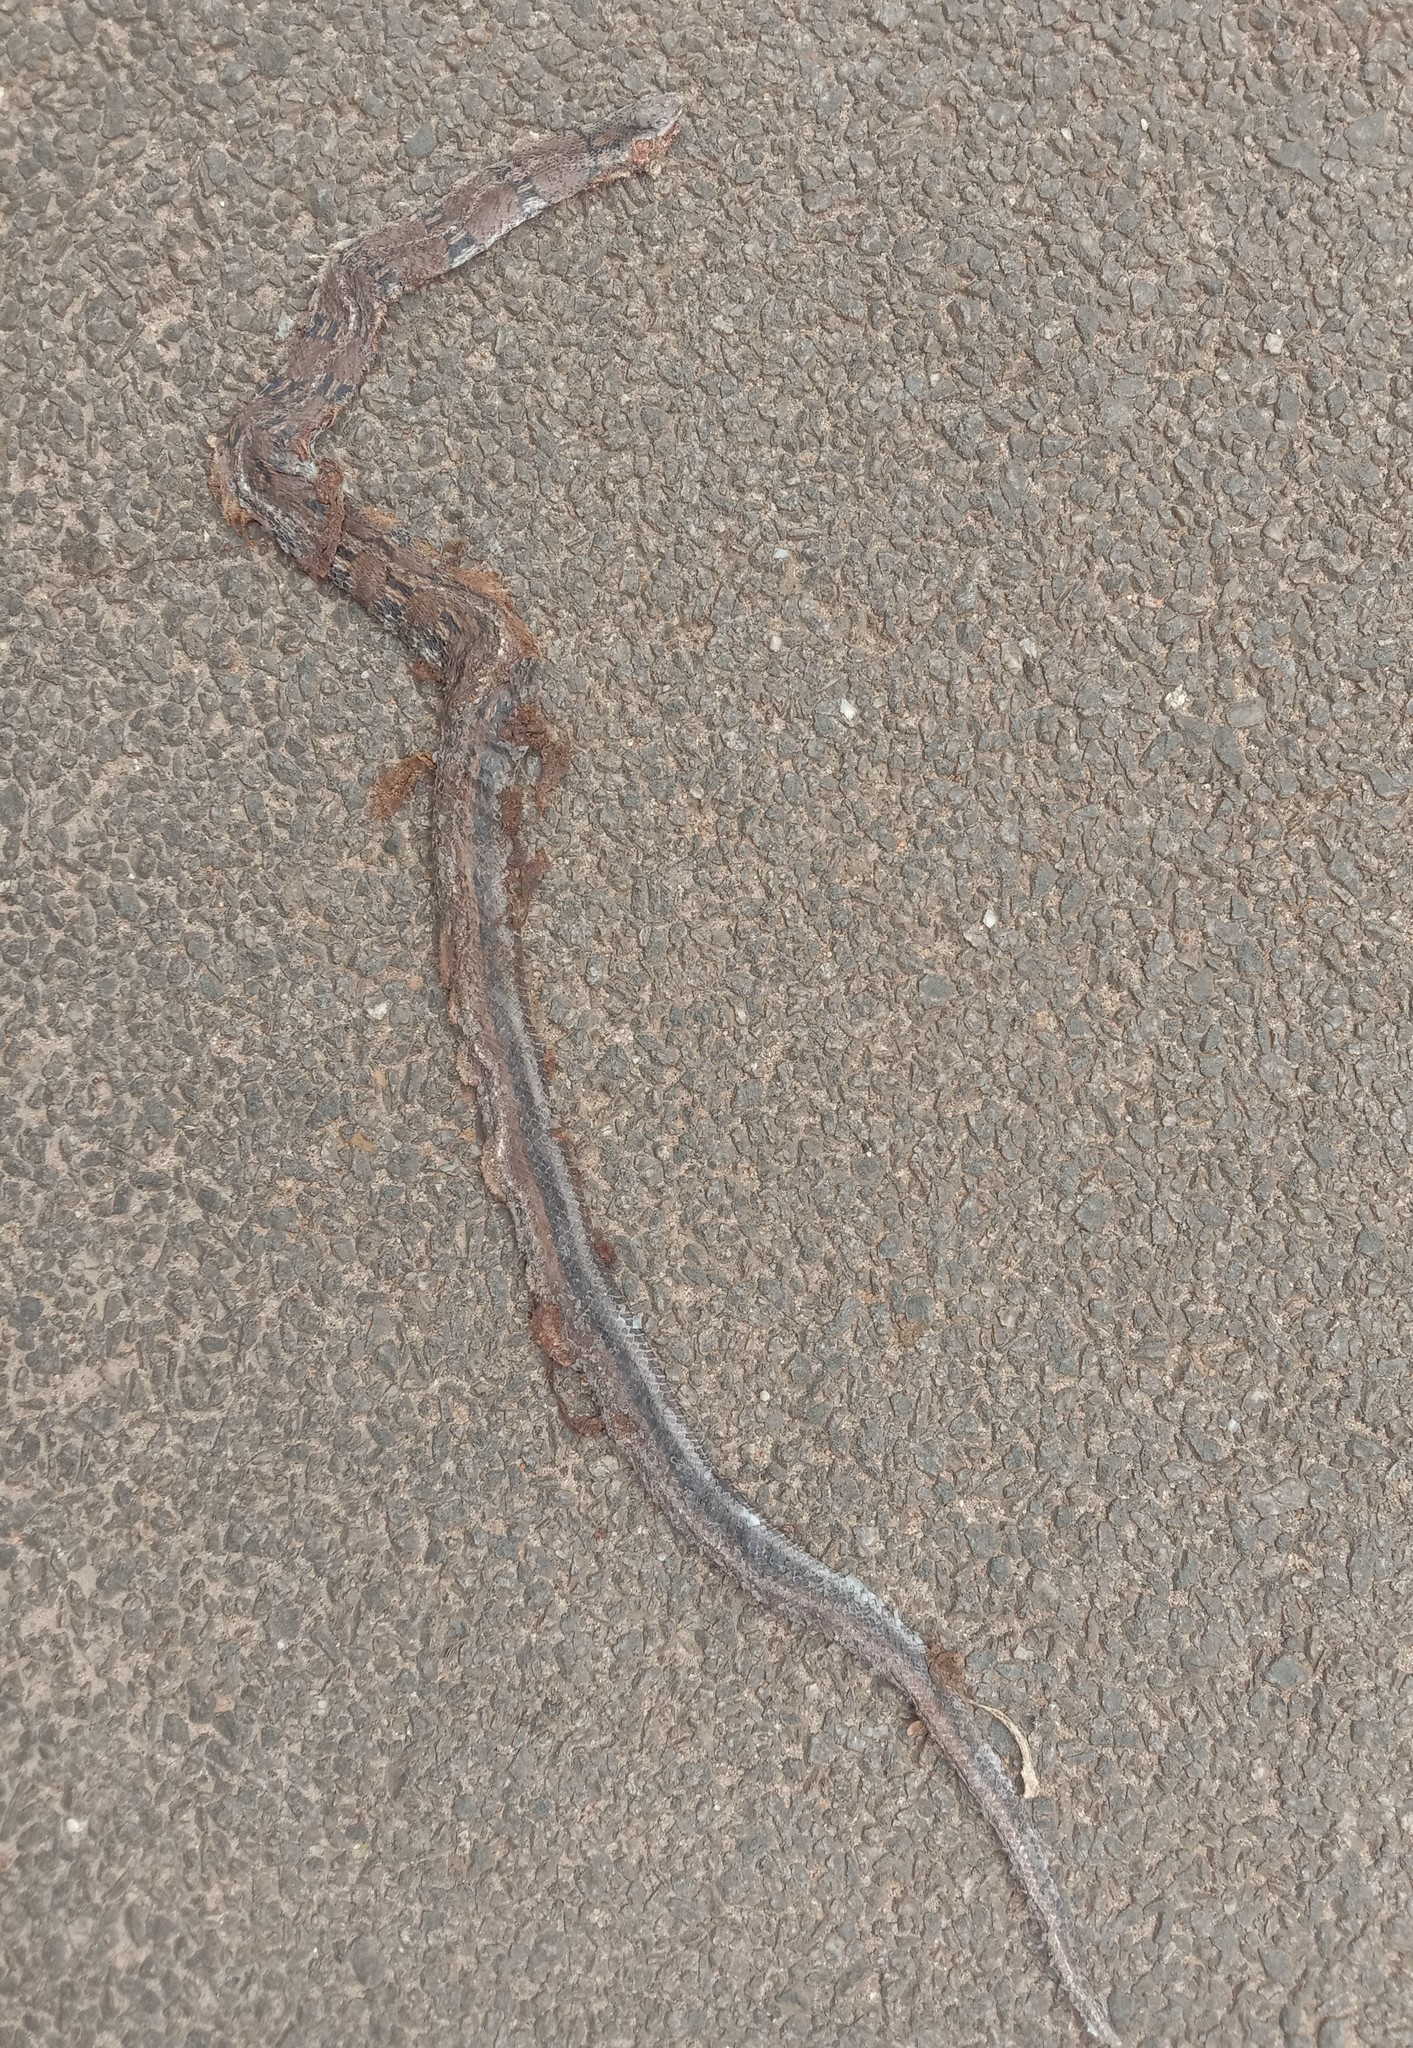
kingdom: Animalia
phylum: Chordata
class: Squamata
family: Colubridae
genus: Coelognathus
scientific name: Coelognathus helena
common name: Trinket snake
